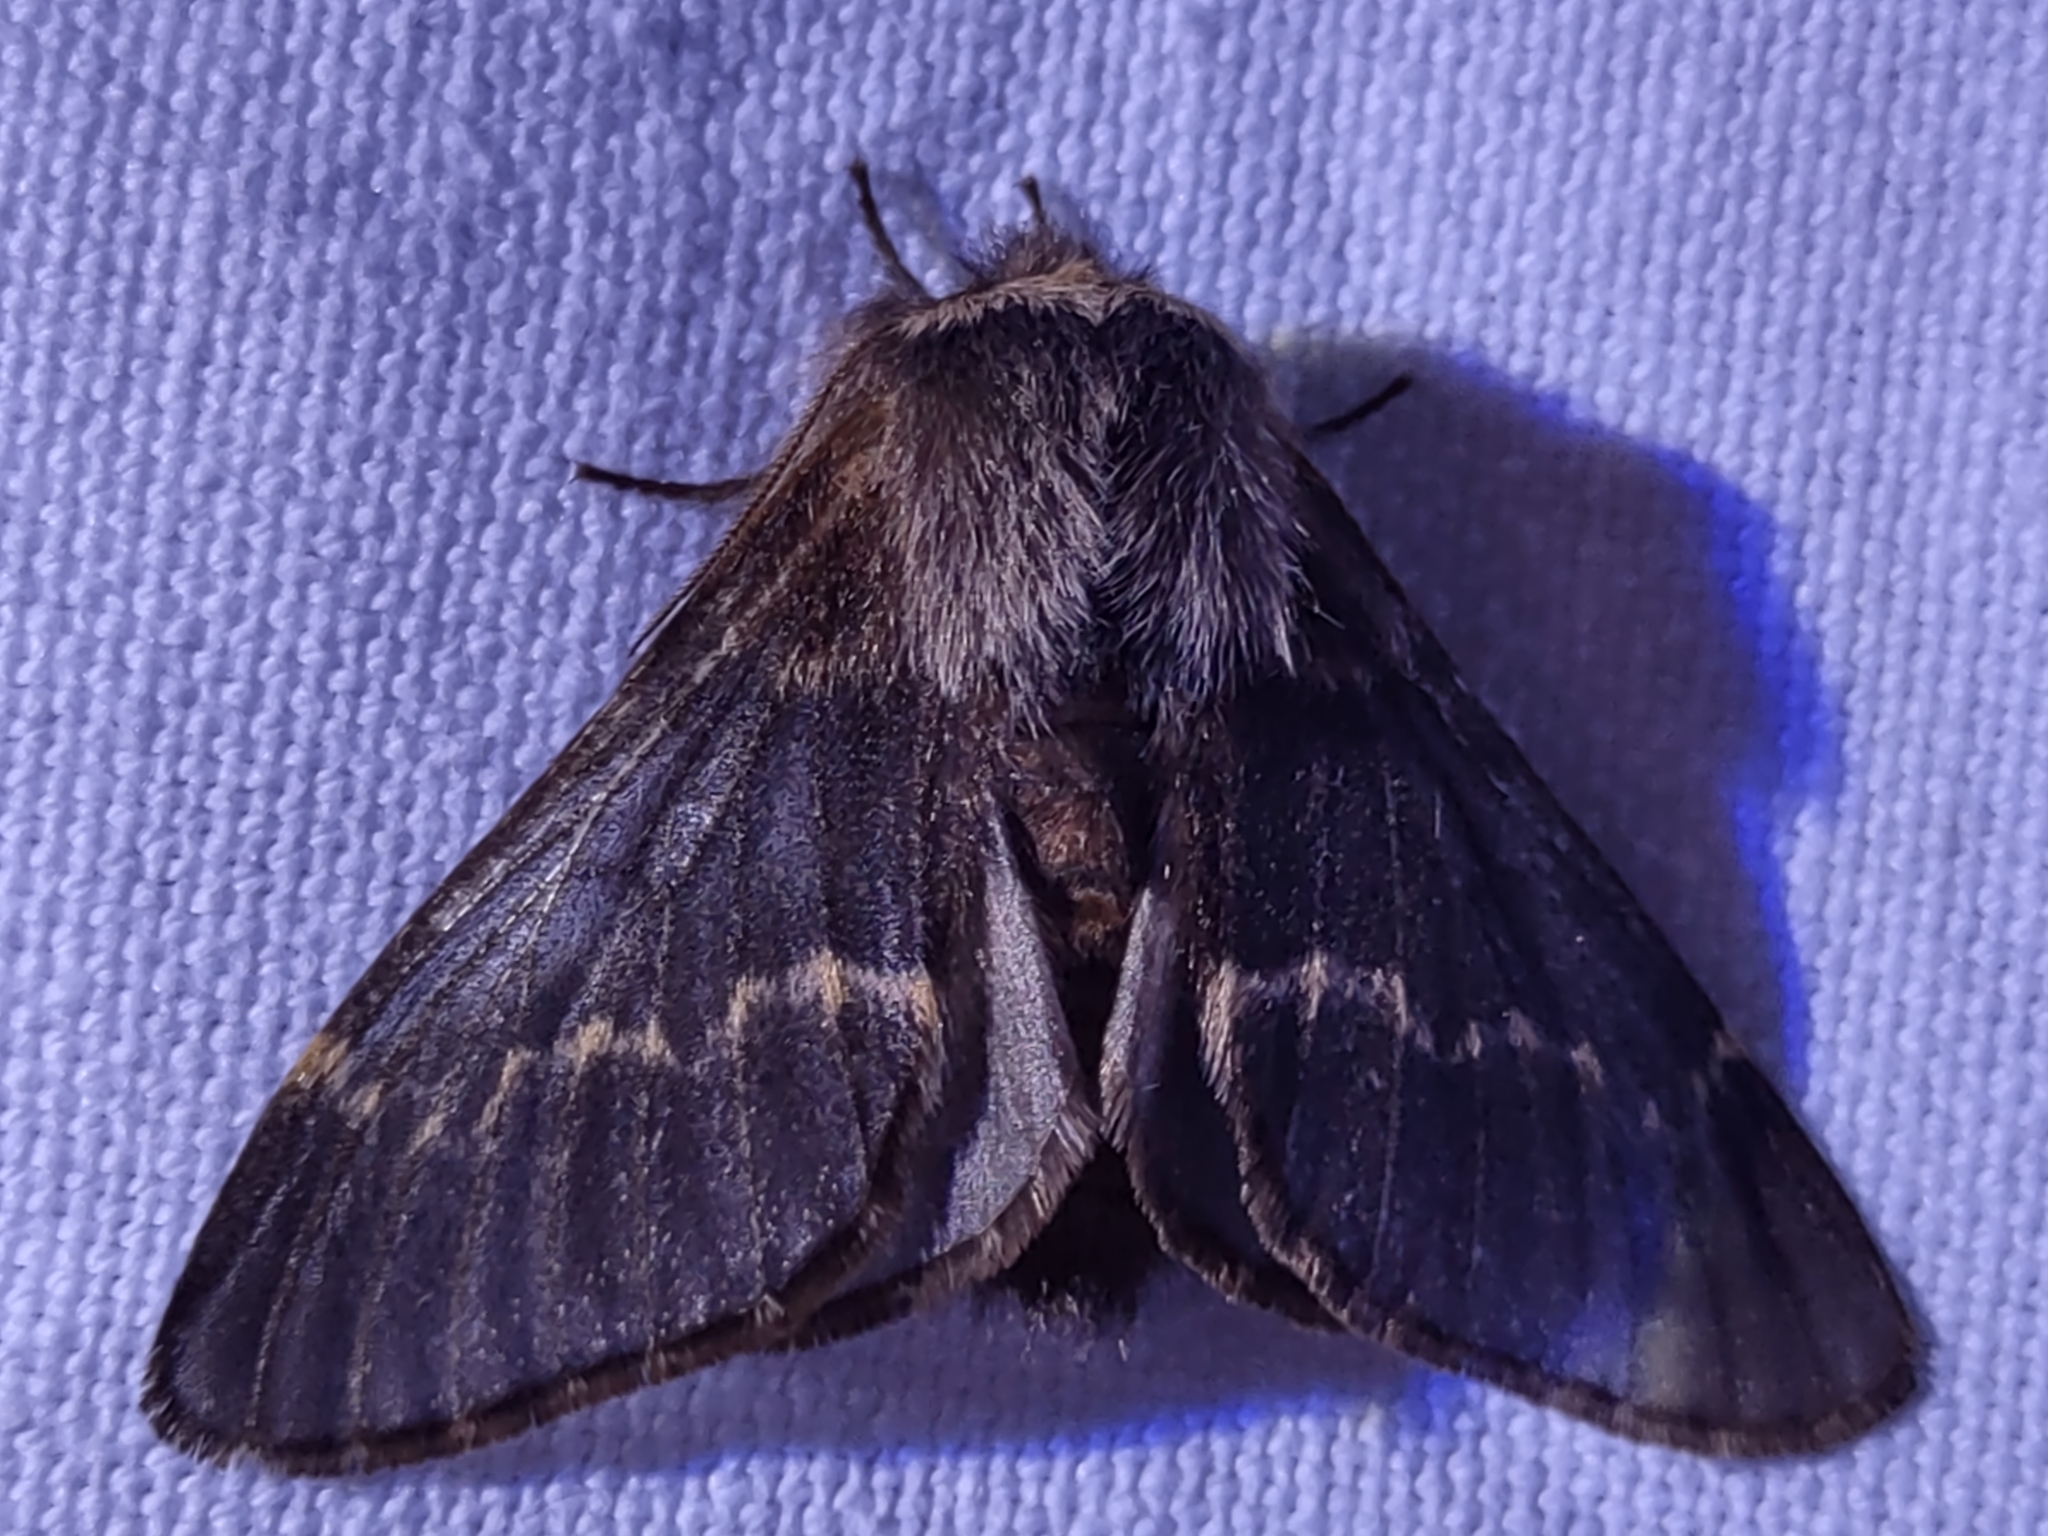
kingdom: Animalia
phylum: Arthropoda
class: Insecta
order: Lepidoptera
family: Lasiocampidae
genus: Poecilocampa
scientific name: Poecilocampa populi
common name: December moth
